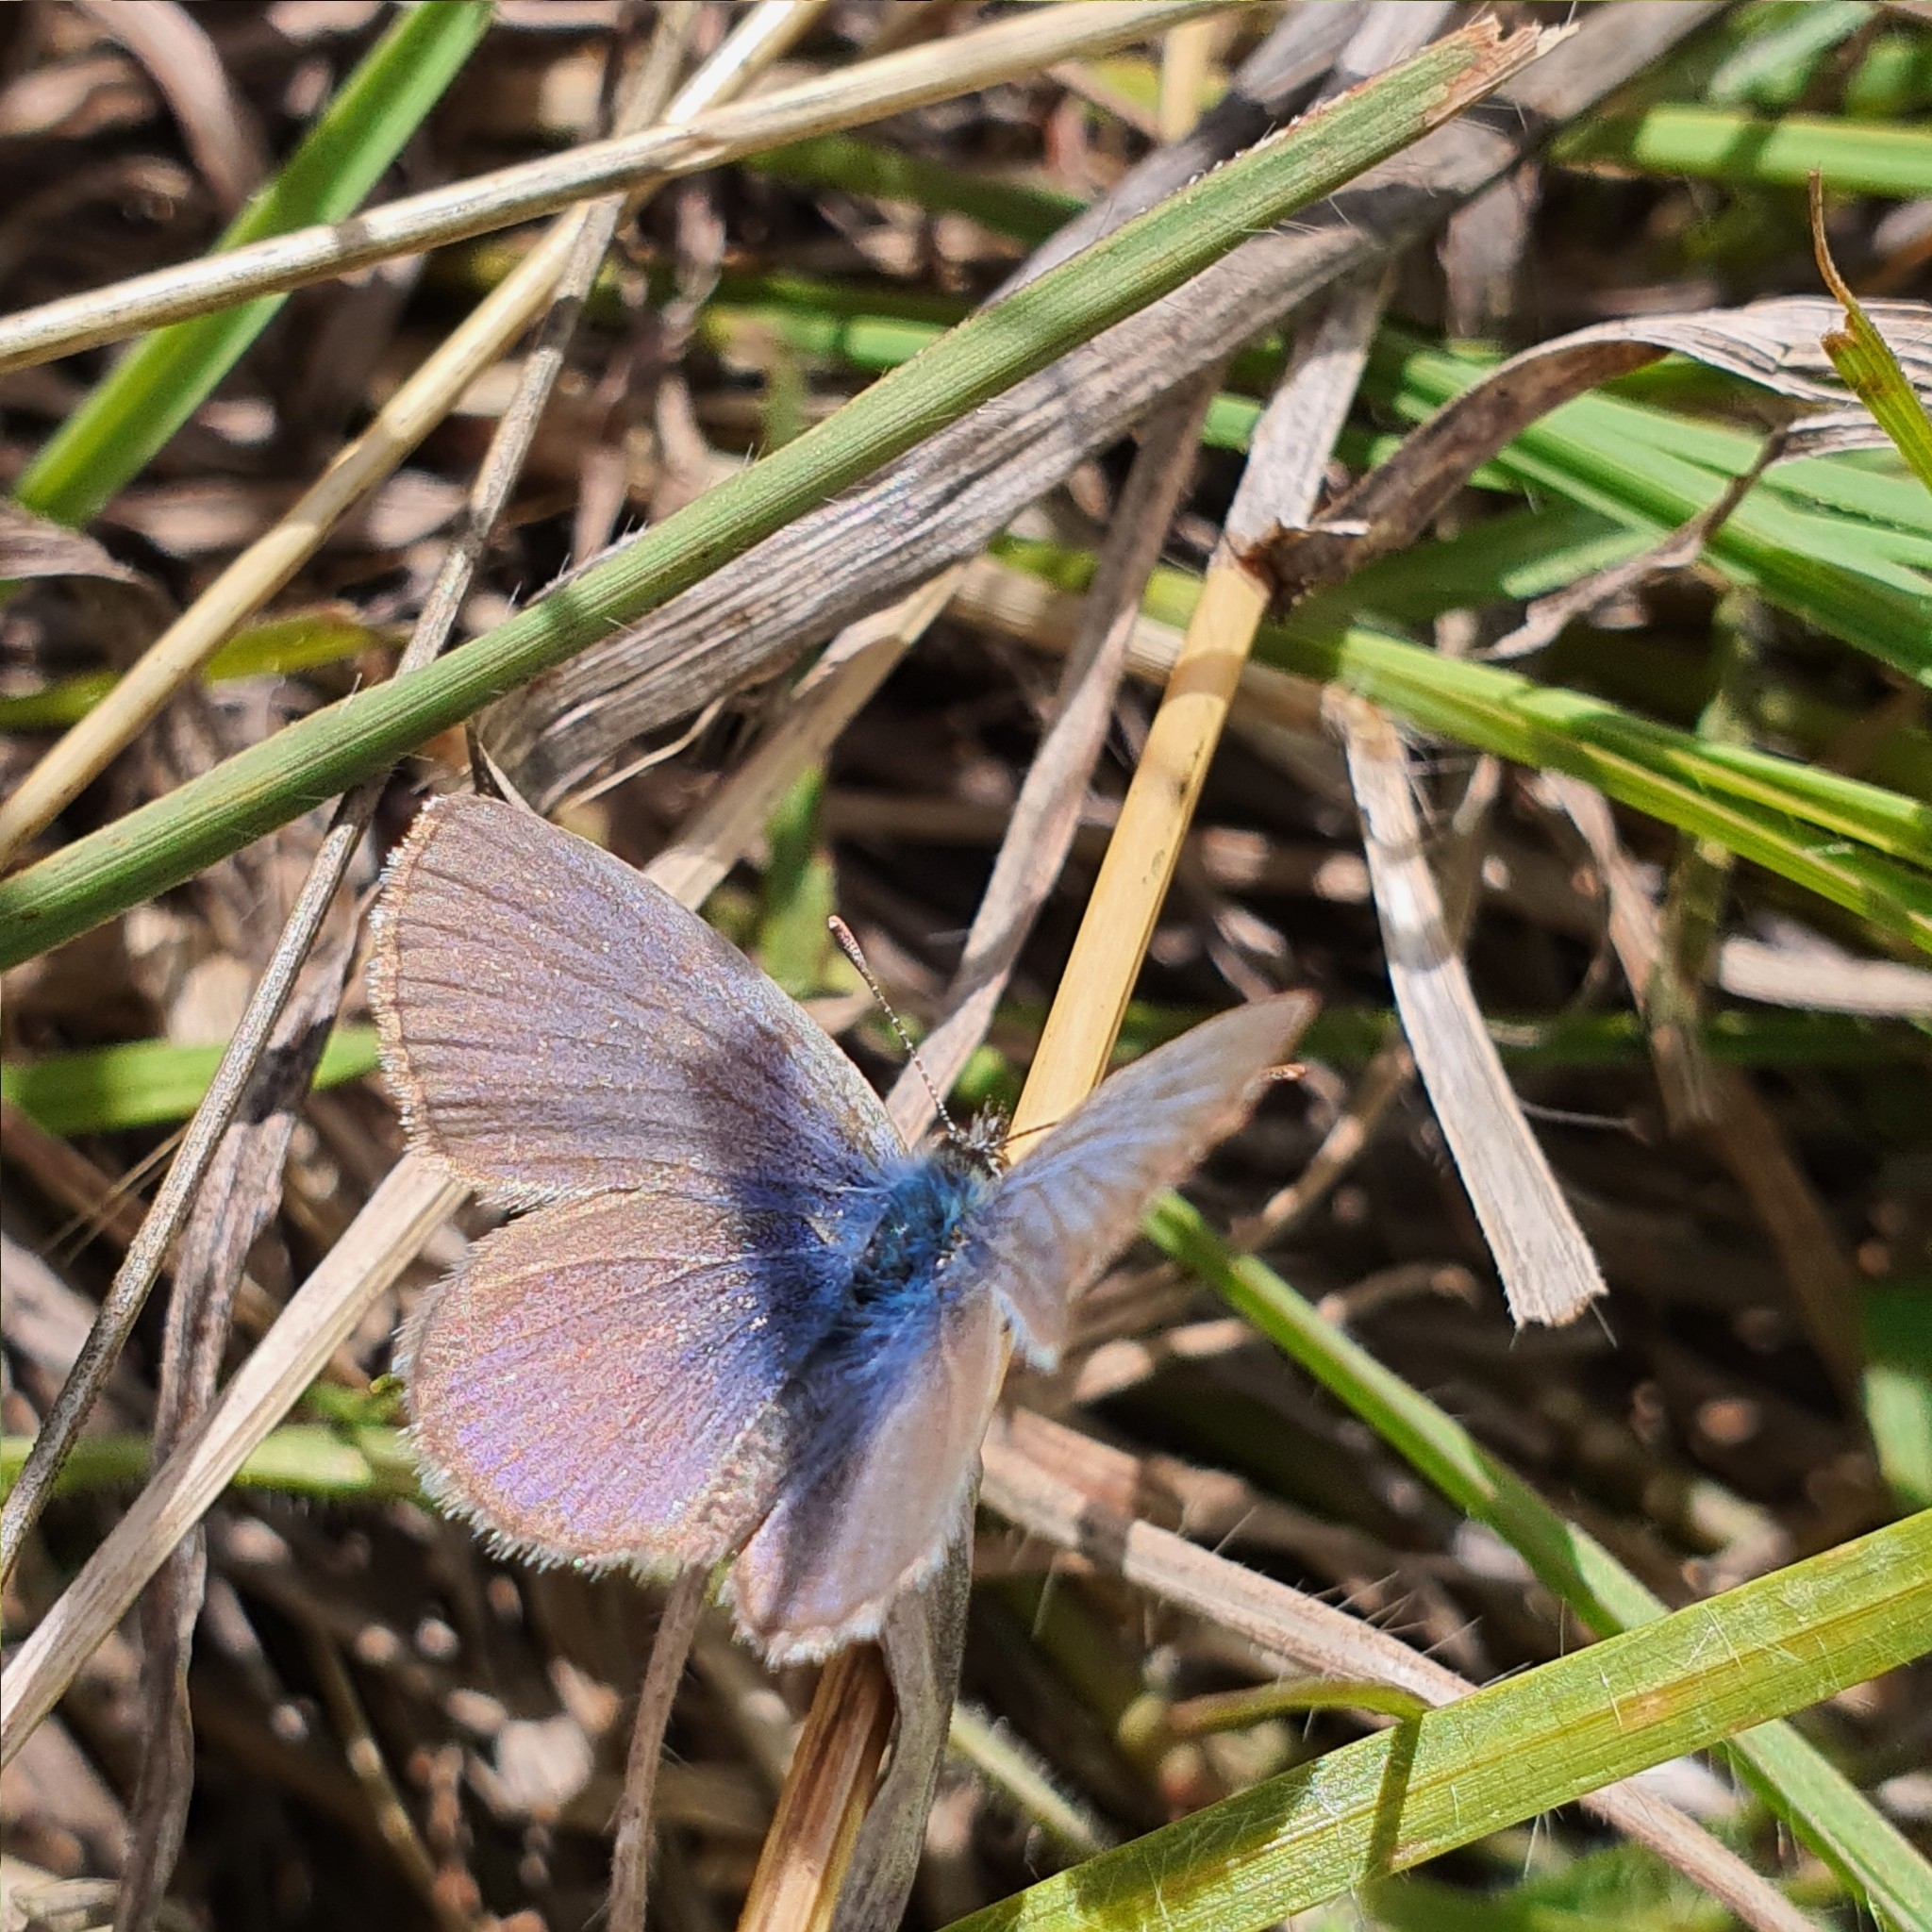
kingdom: Animalia
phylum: Arthropoda
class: Insecta
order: Lepidoptera
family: Lycaenidae
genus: Zizina
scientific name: Zizina labradus
